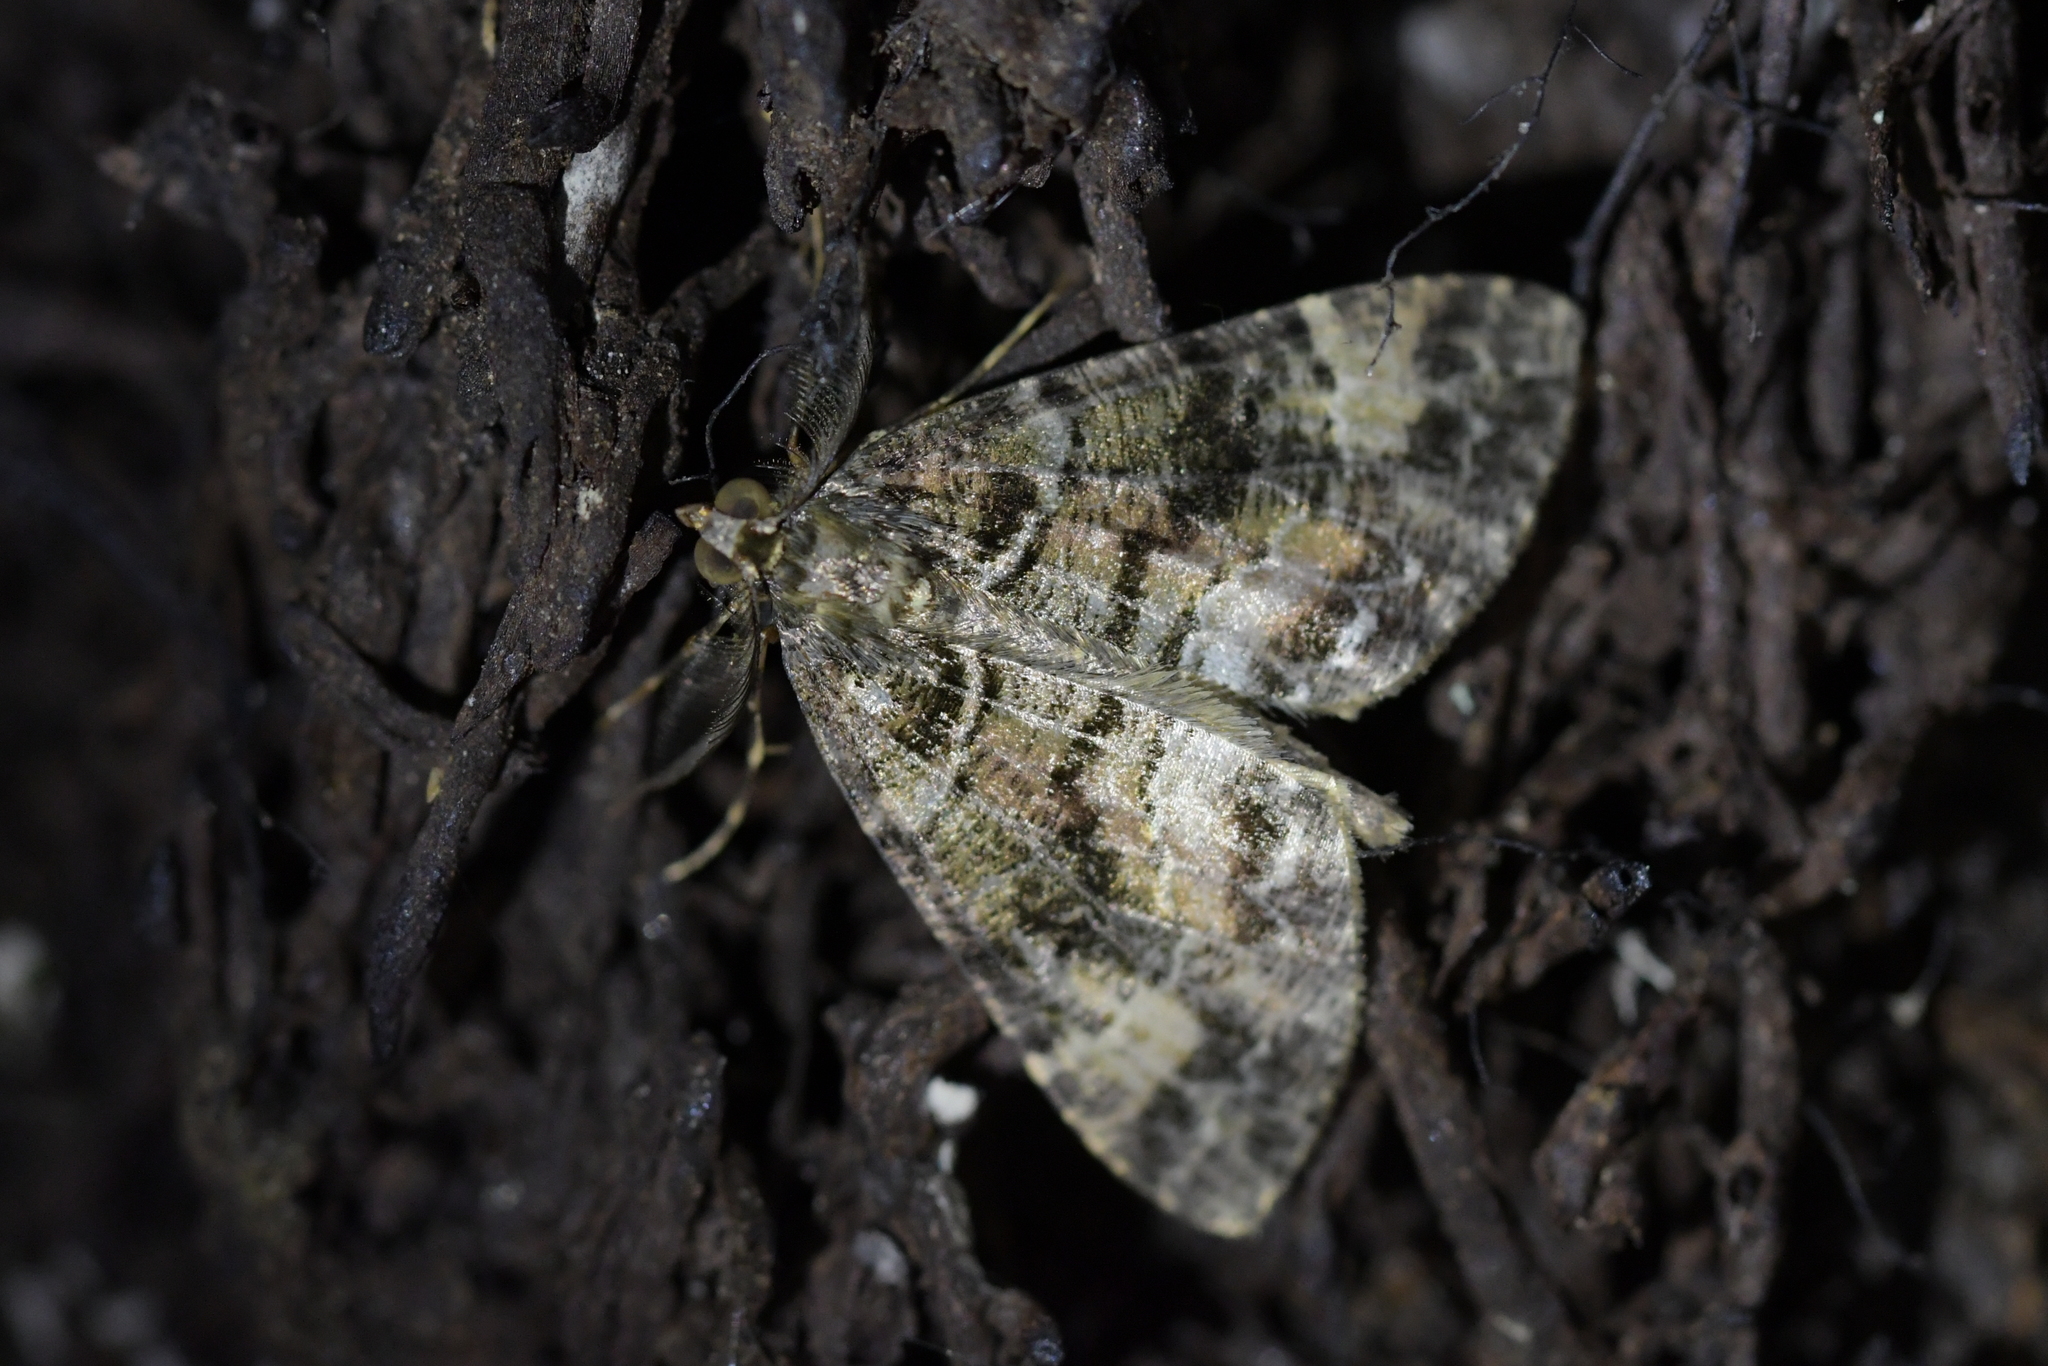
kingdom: Animalia
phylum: Arthropoda
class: Insecta
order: Lepidoptera
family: Geometridae
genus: Pseudocoremia
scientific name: Pseudocoremia productata
